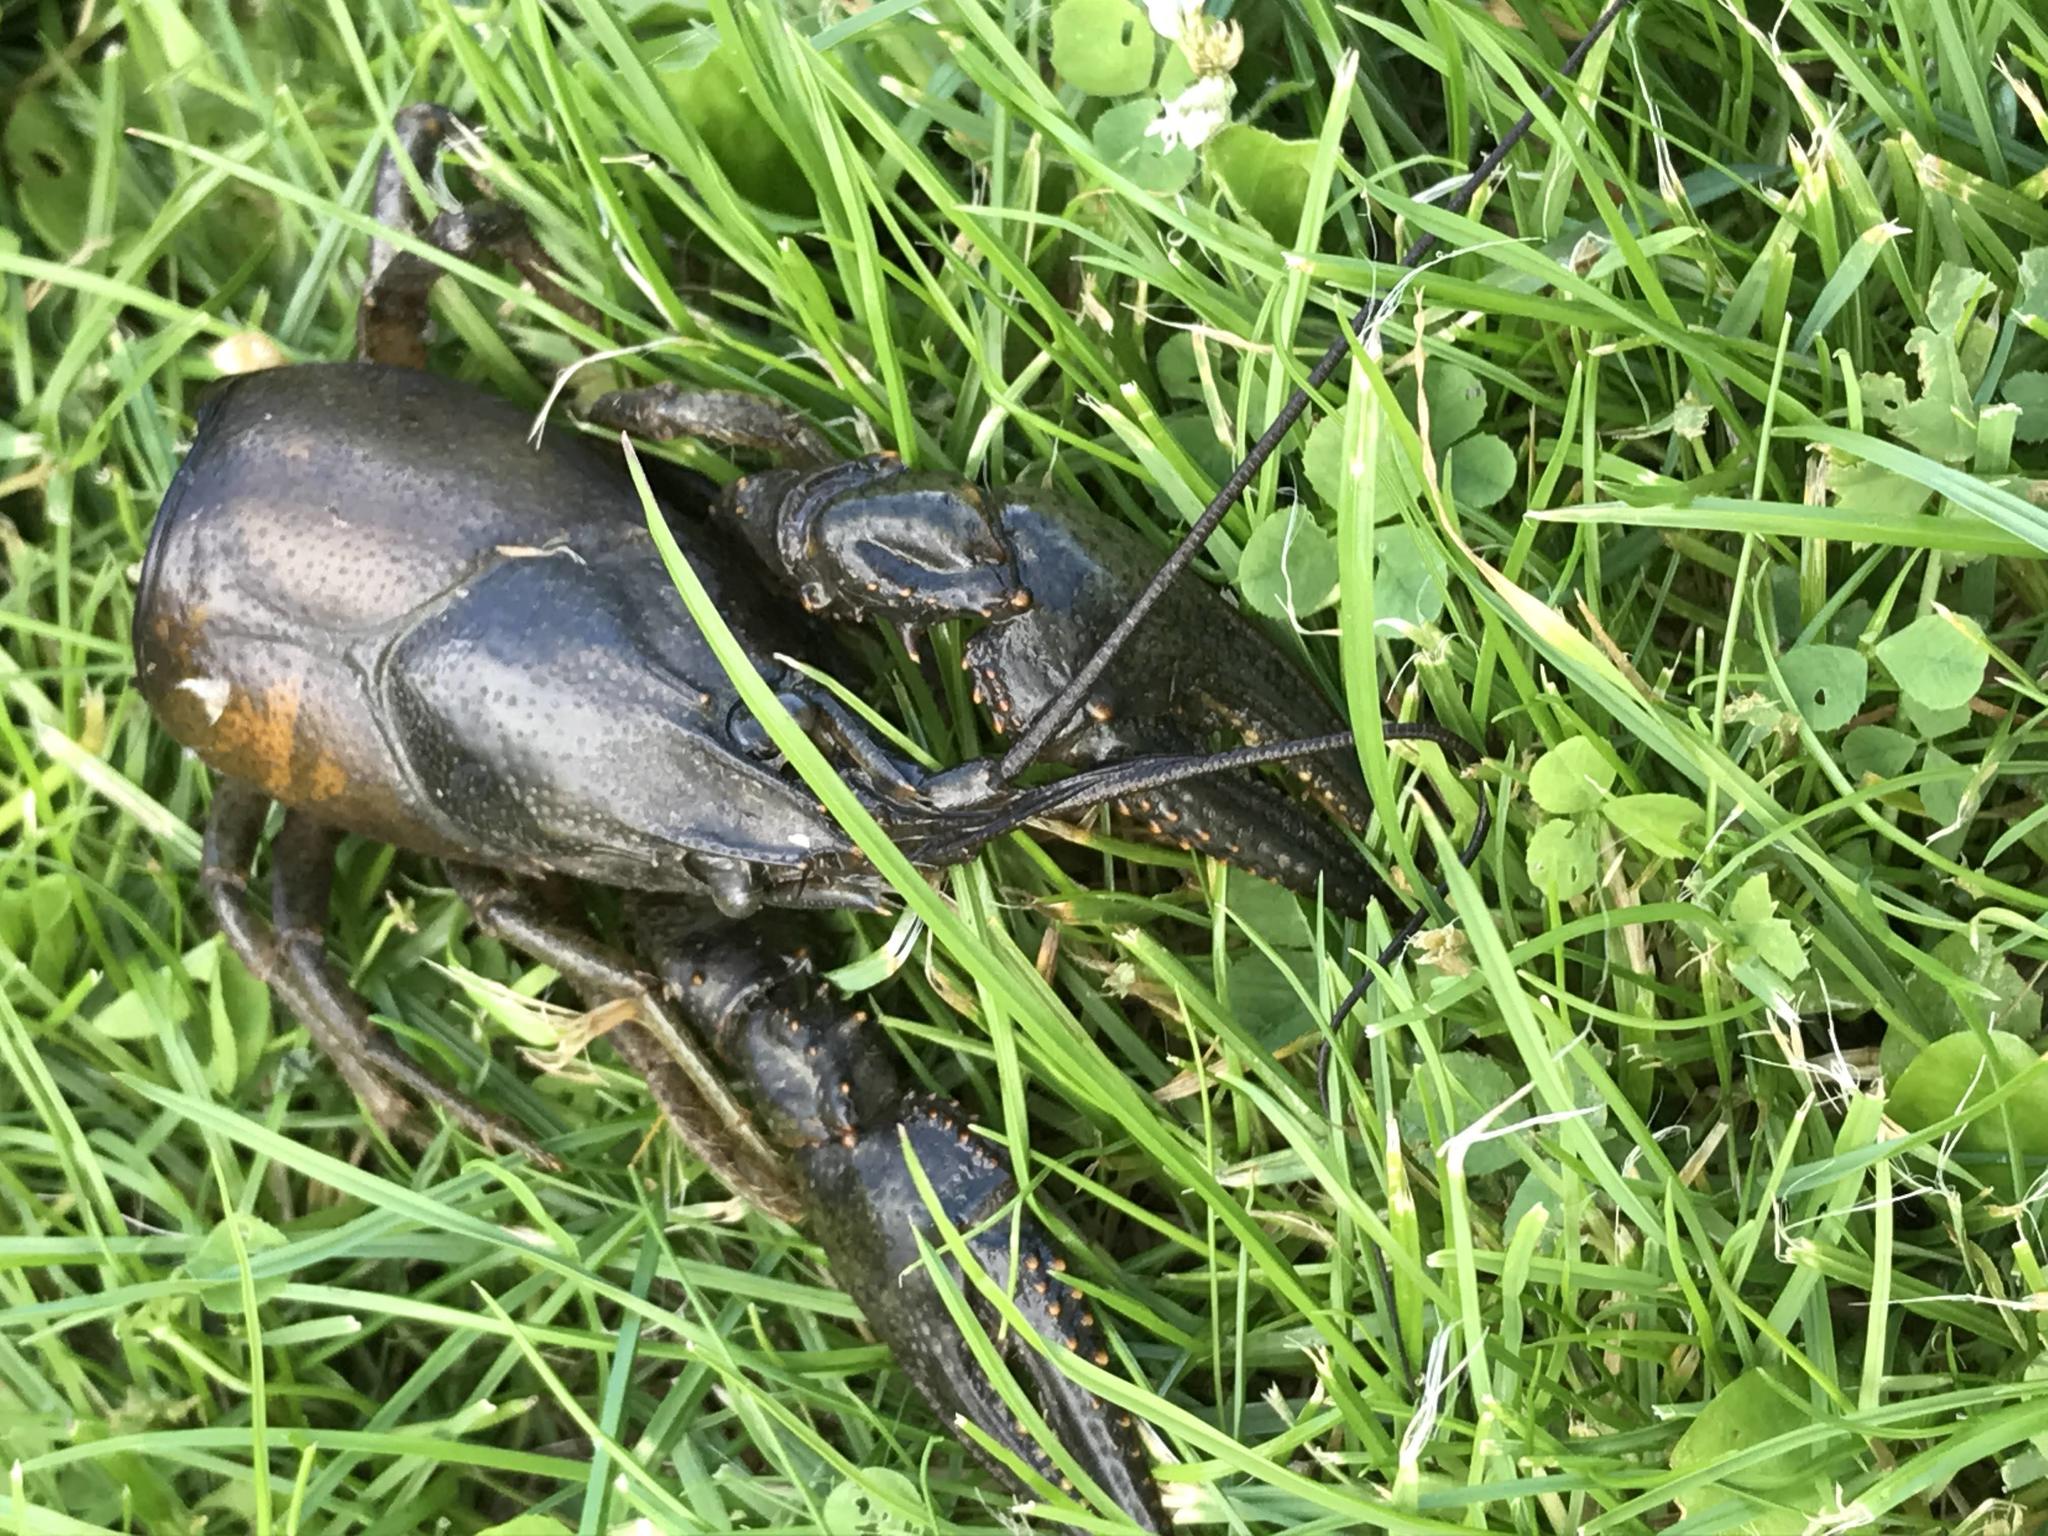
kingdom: Animalia
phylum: Arthropoda
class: Malacostraca
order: Decapoda
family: Cambaridae
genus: Faxonius
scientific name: Faxonius limosus
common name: American crayfish
